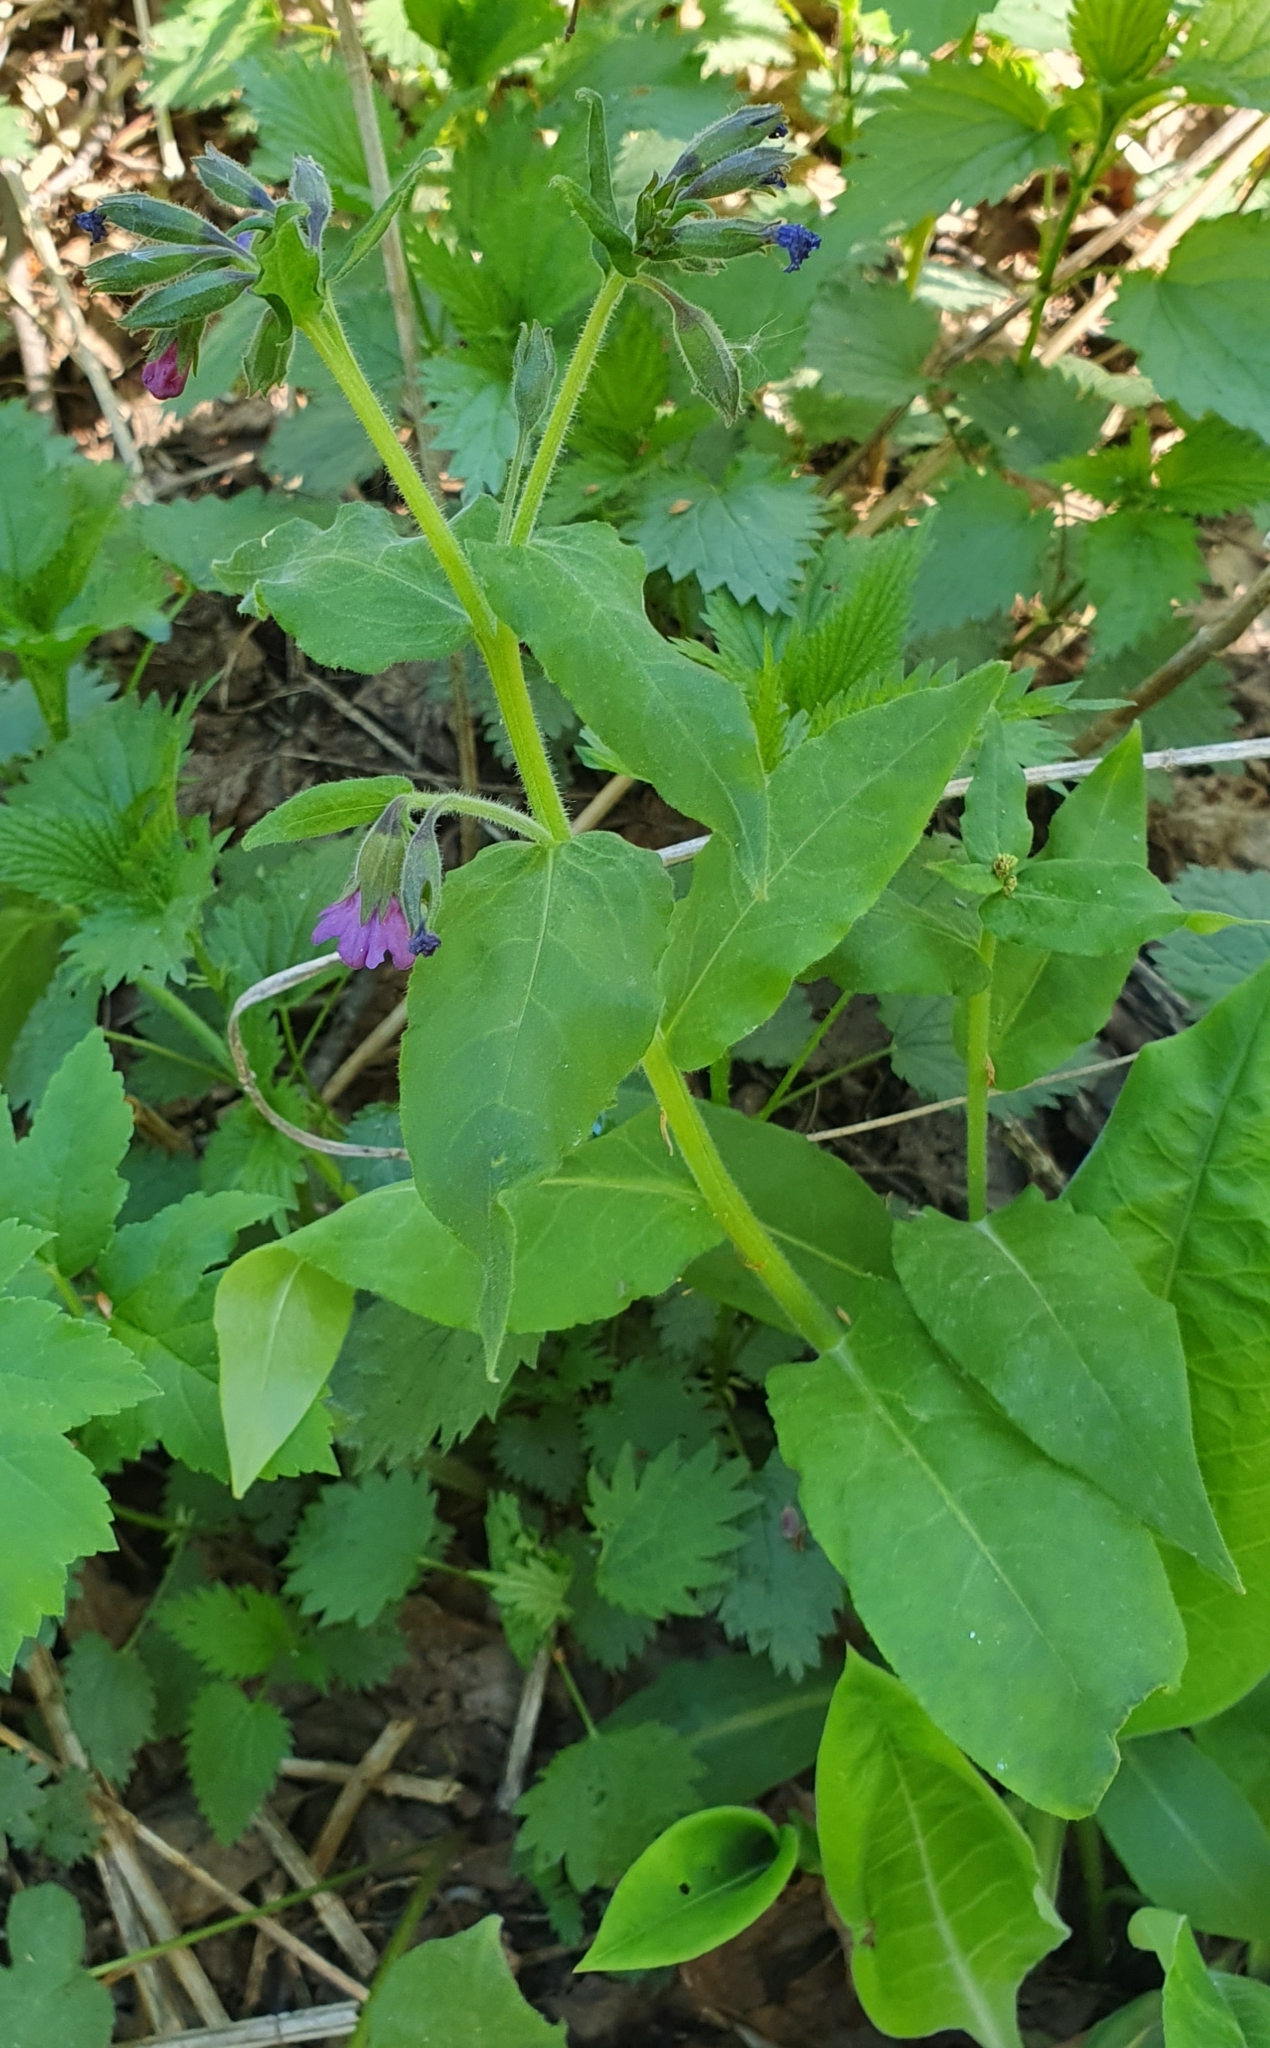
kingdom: Plantae
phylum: Tracheophyta
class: Magnoliopsida
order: Boraginales
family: Boraginaceae
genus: Pulmonaria
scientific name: Pulmonaria obscura
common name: Suffolk lungwort
